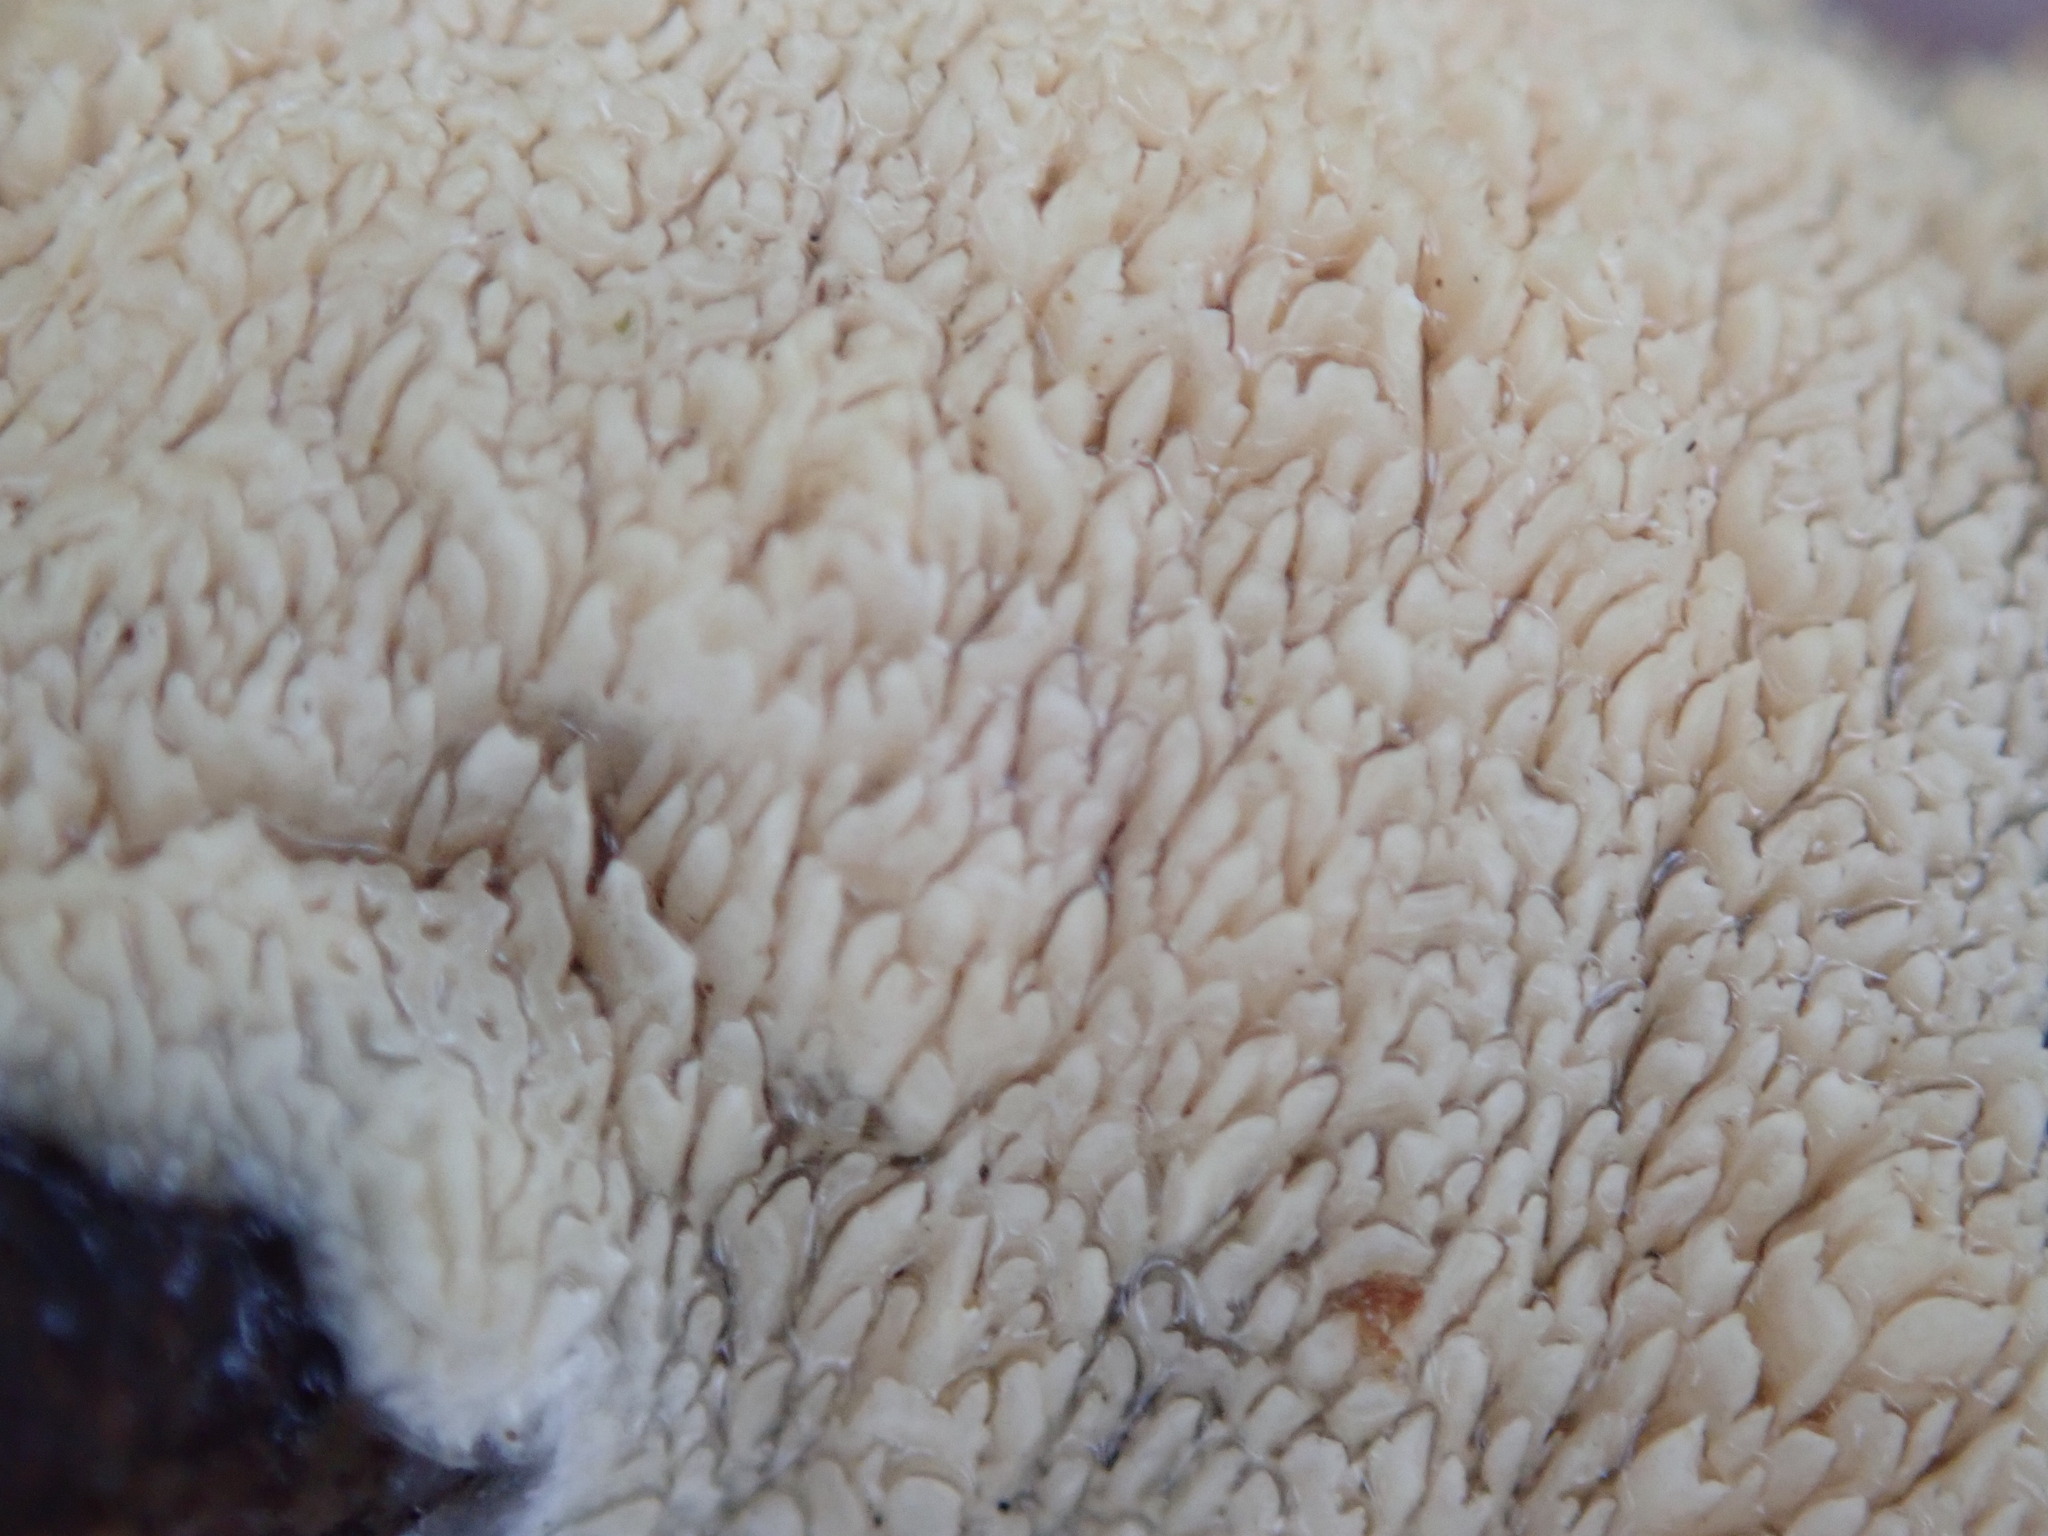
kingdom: Fungi
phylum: Basidiomycota
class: Agaricomycetes
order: Polyporales
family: Irpicaceae
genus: Irpex
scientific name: Irpex lacteus
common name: Milk-white toothed polypore
